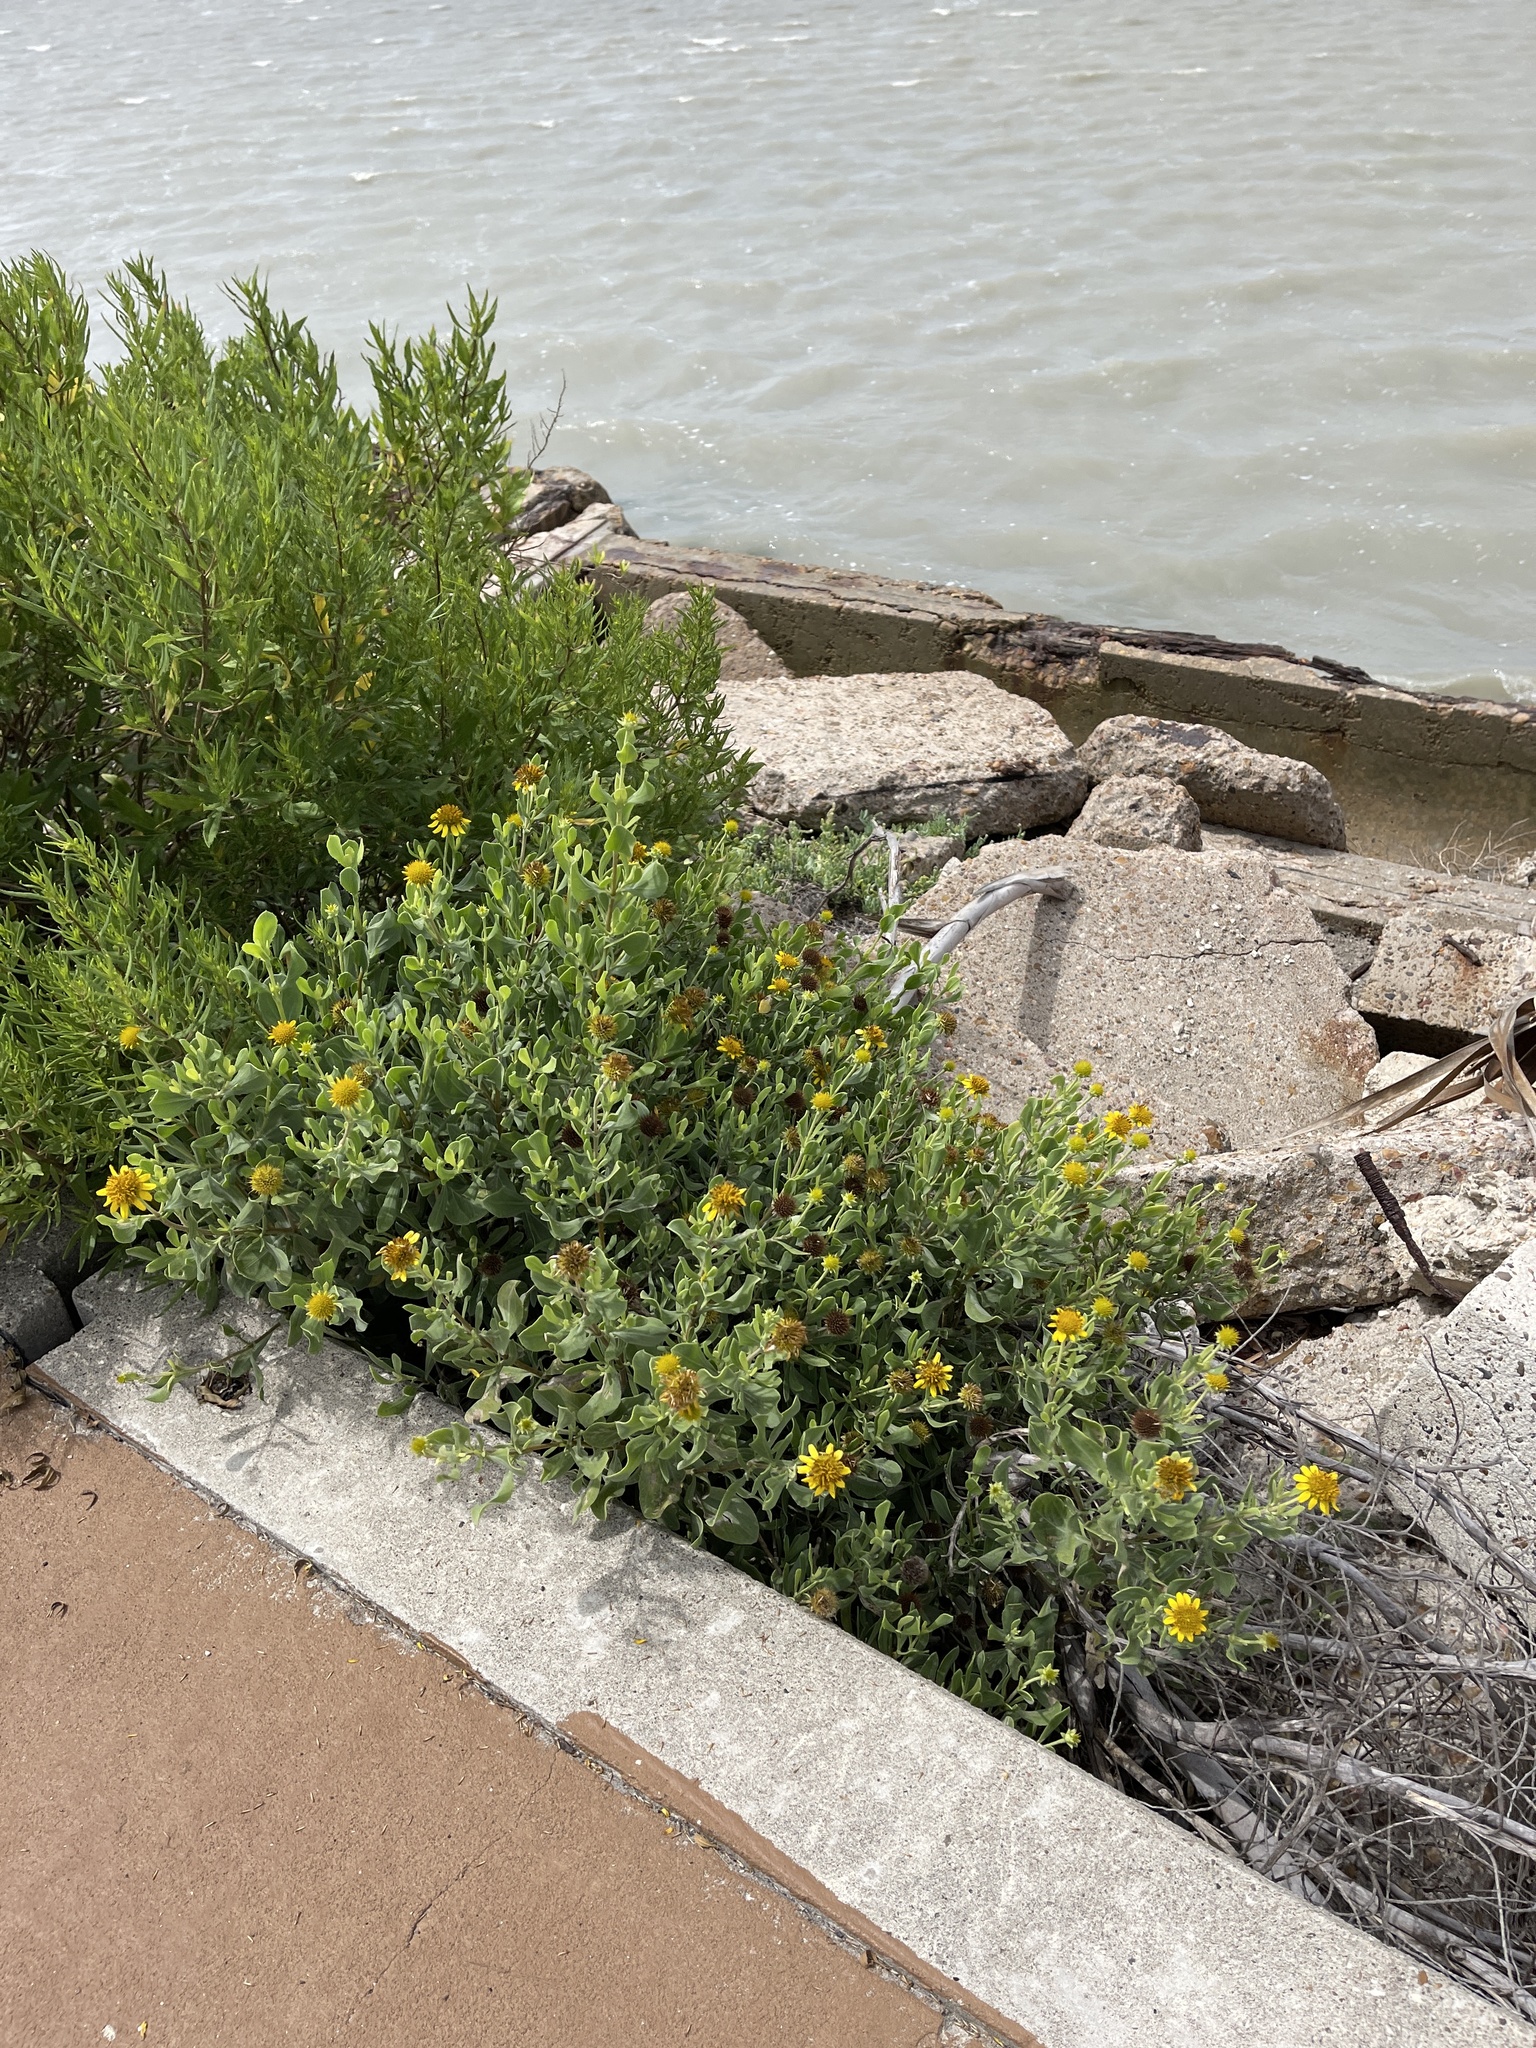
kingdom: Plantae
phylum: Tracheophyta
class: Magnoliopsida
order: Asterales
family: Asteraceae
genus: Borrichia
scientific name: Borrichia frutescens
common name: Sea oxeye
